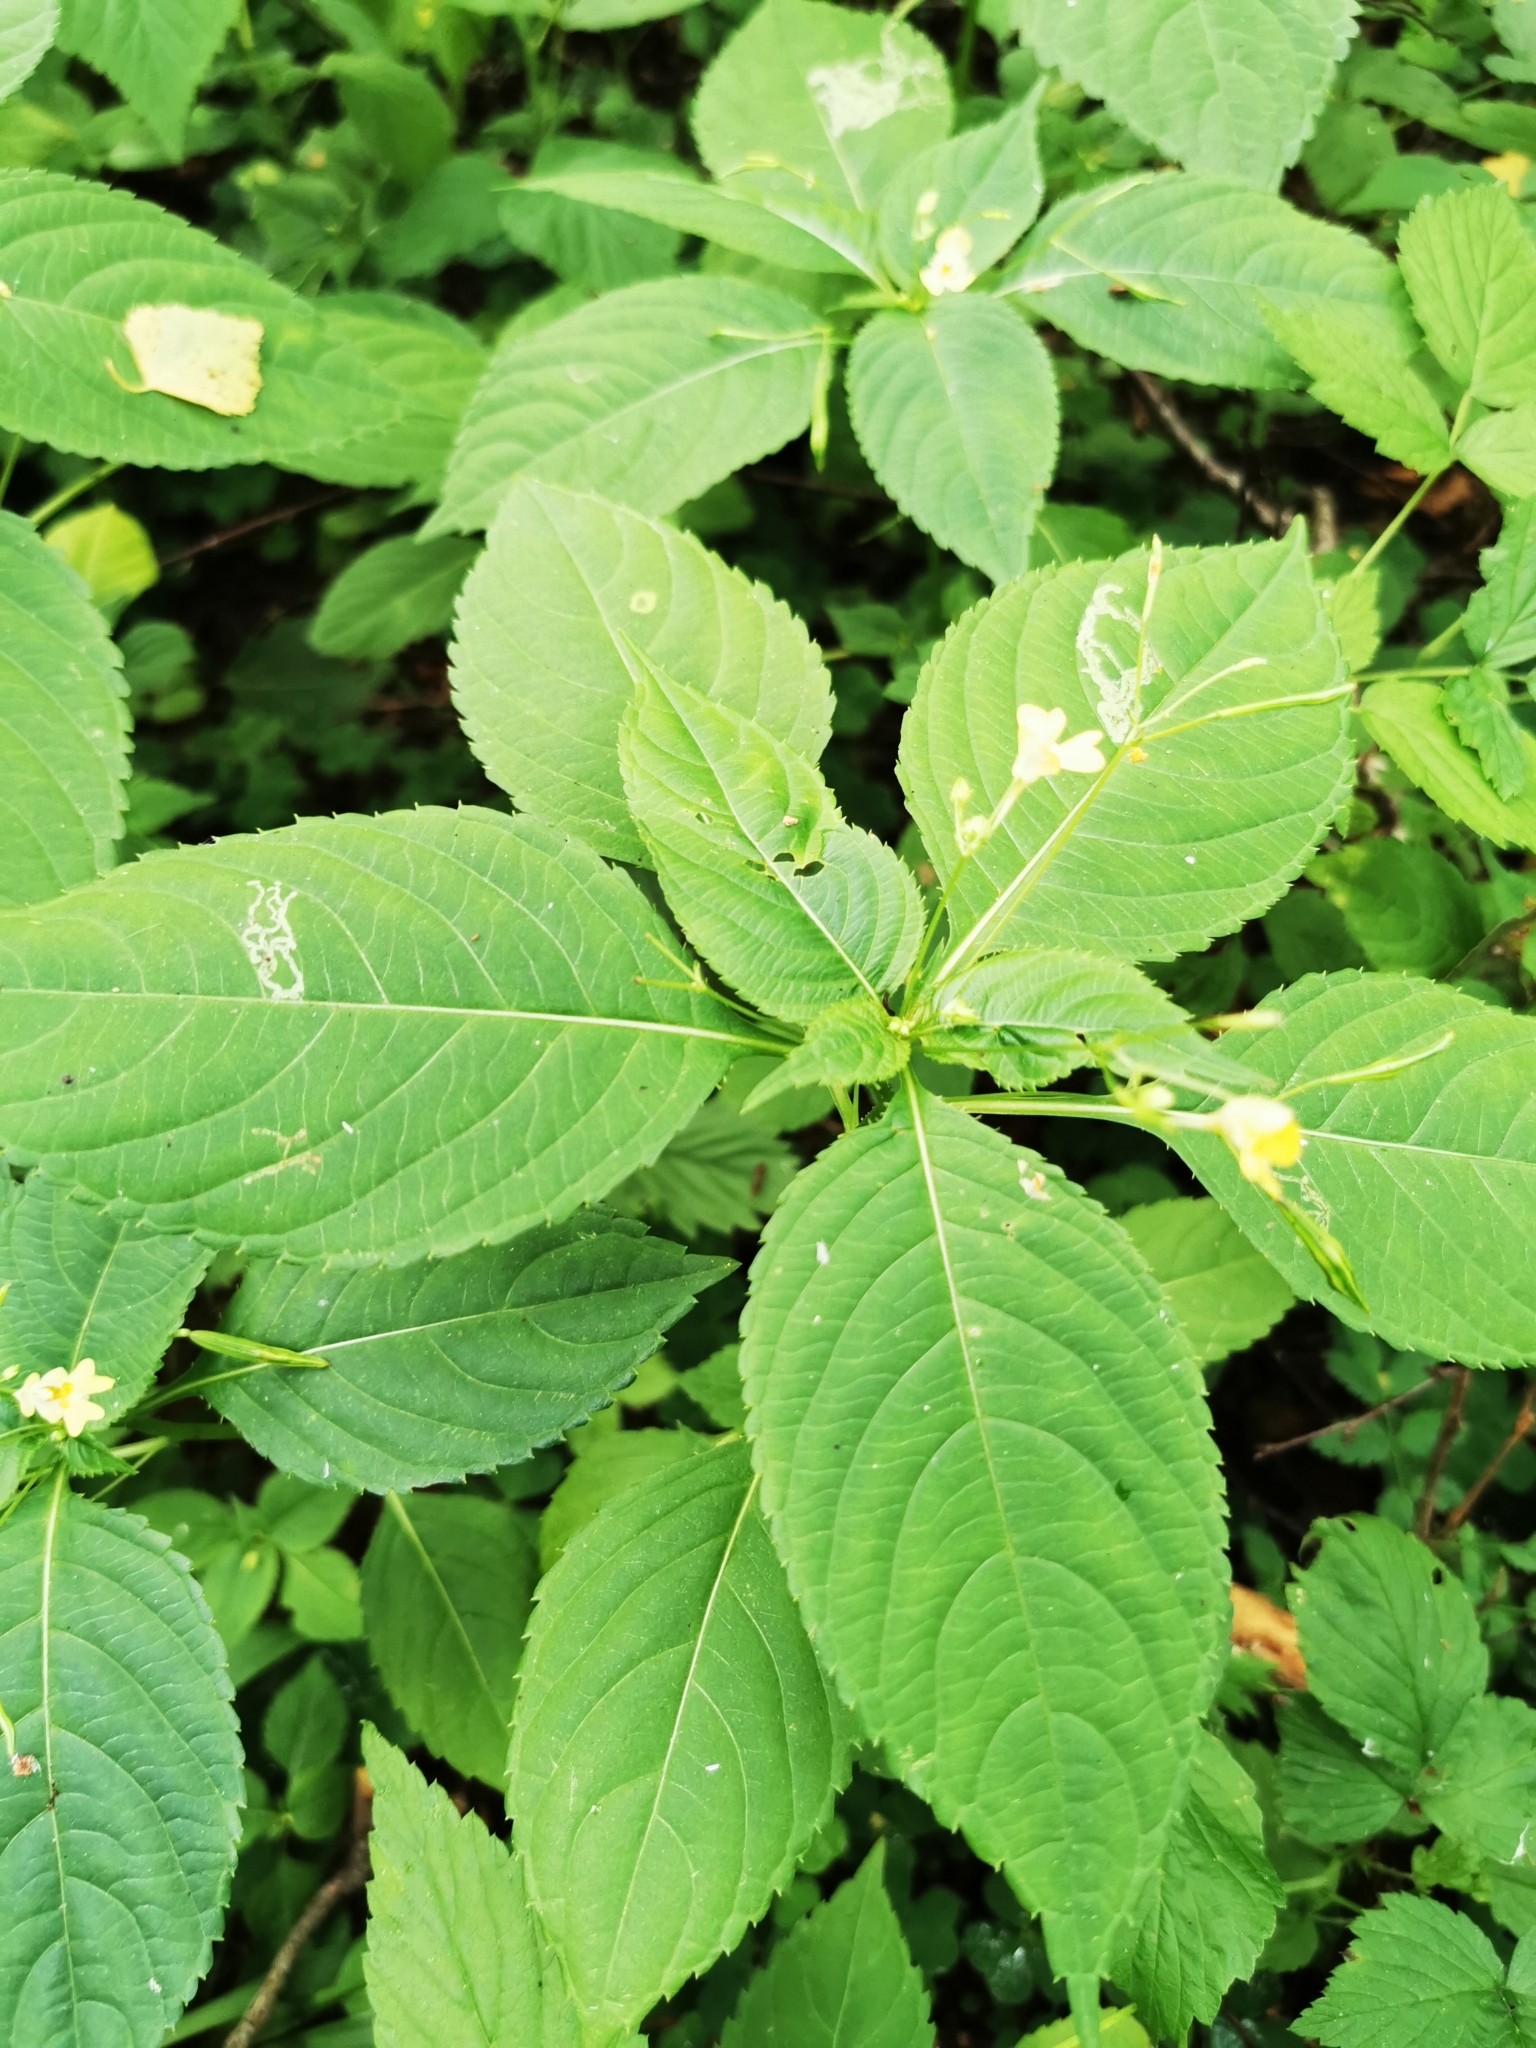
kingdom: Plantae
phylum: Tracheophyta
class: Magnoliopsida
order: Ericales
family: Balsaminaceae
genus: Impatiens
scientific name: Impatiens parviflora
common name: Small balsam
